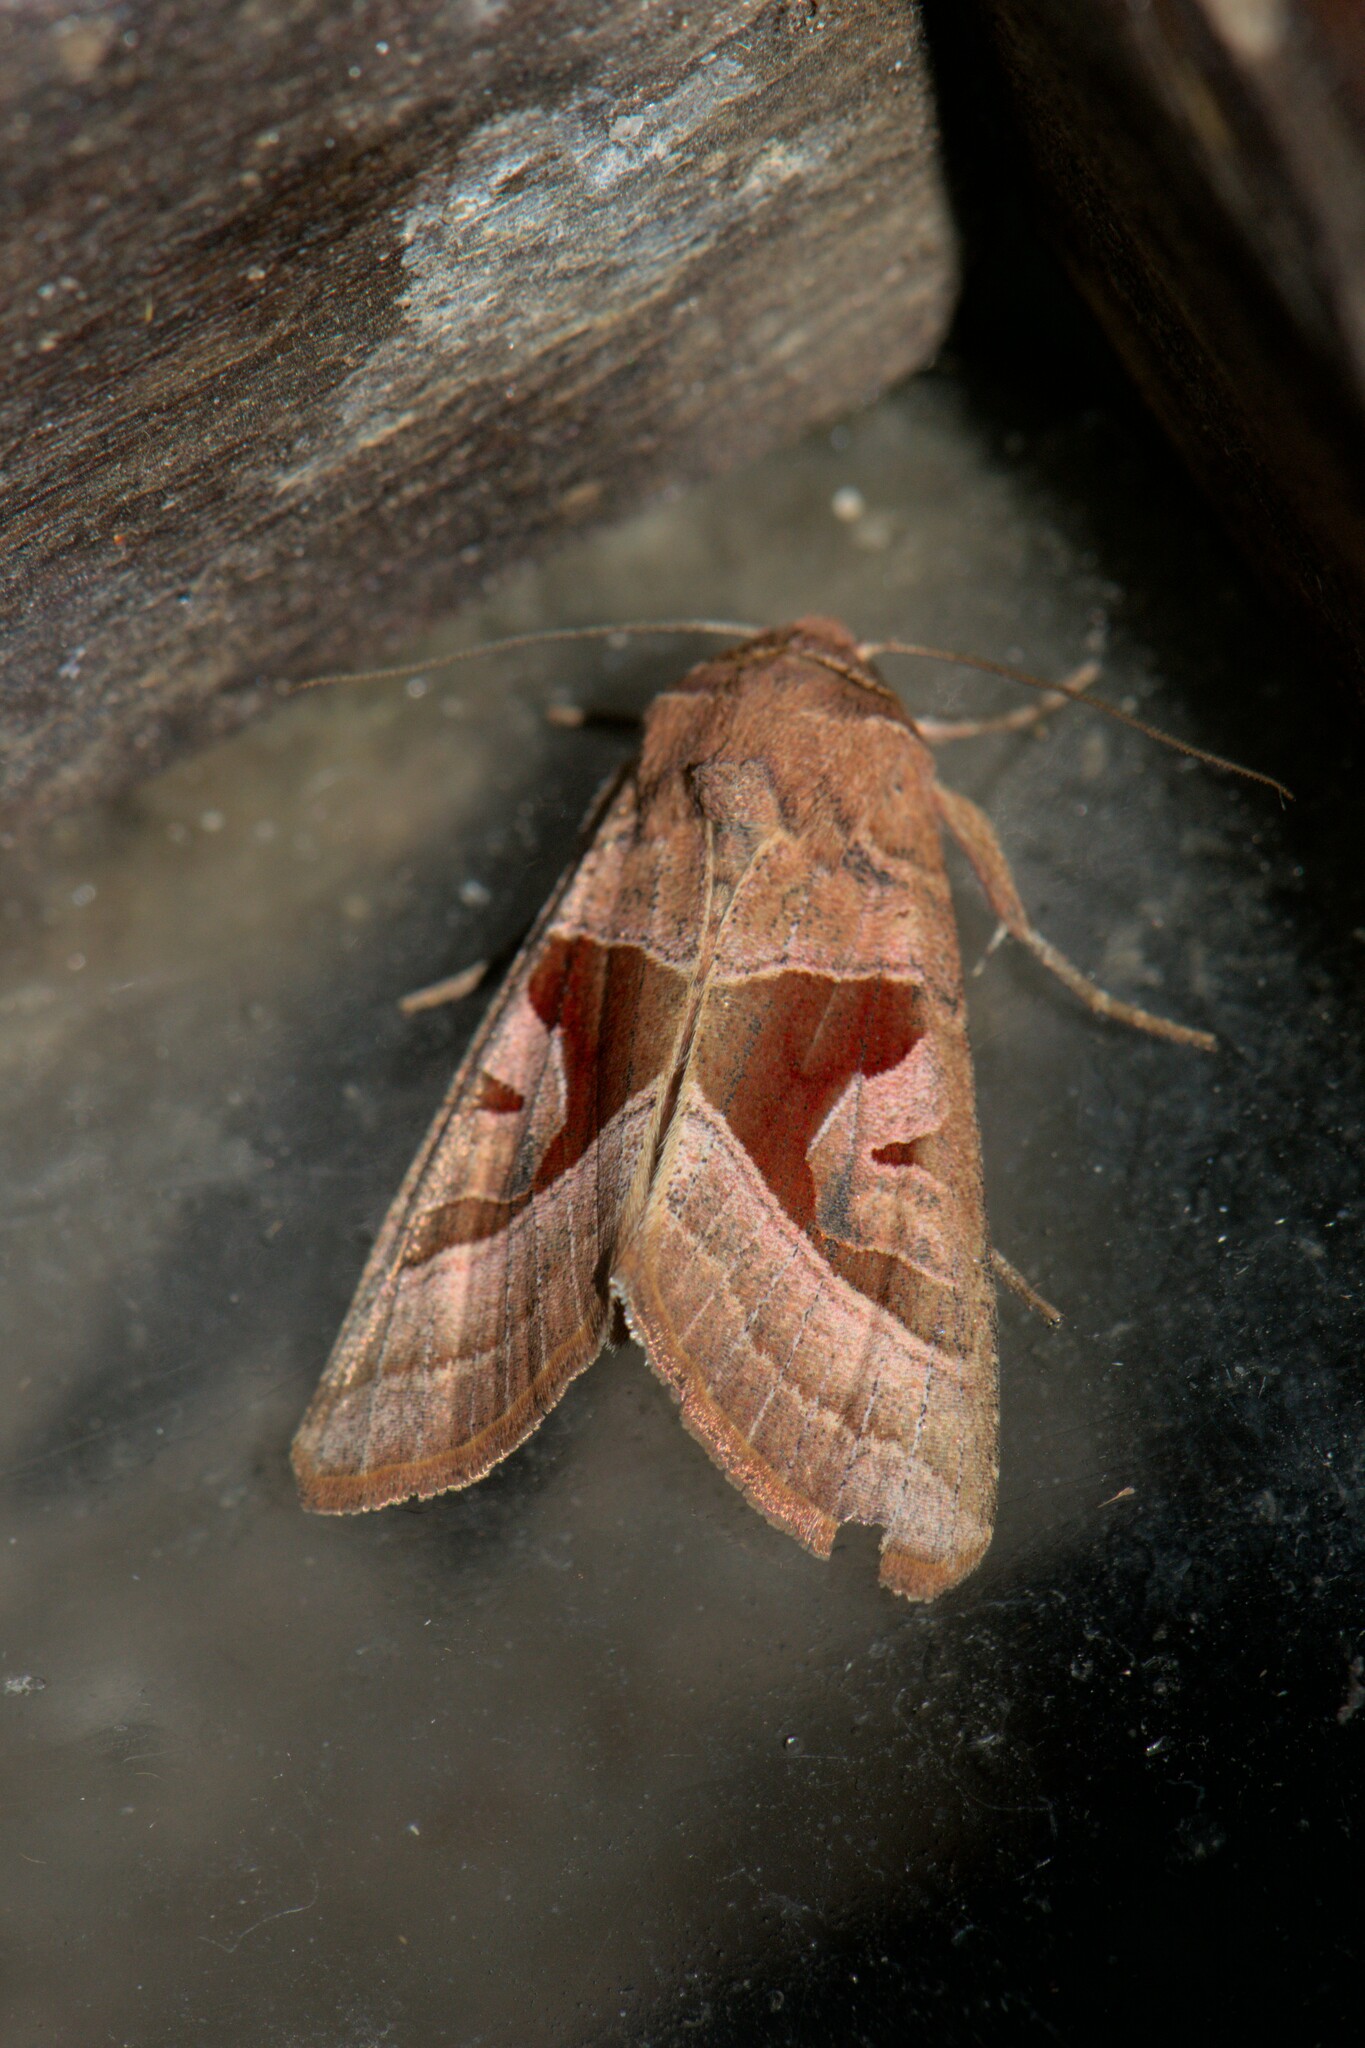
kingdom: Animalia
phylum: Arthropoda
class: Insecta
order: Lepidoptera
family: Noctuidae
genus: Conservula
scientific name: Conservula indica
